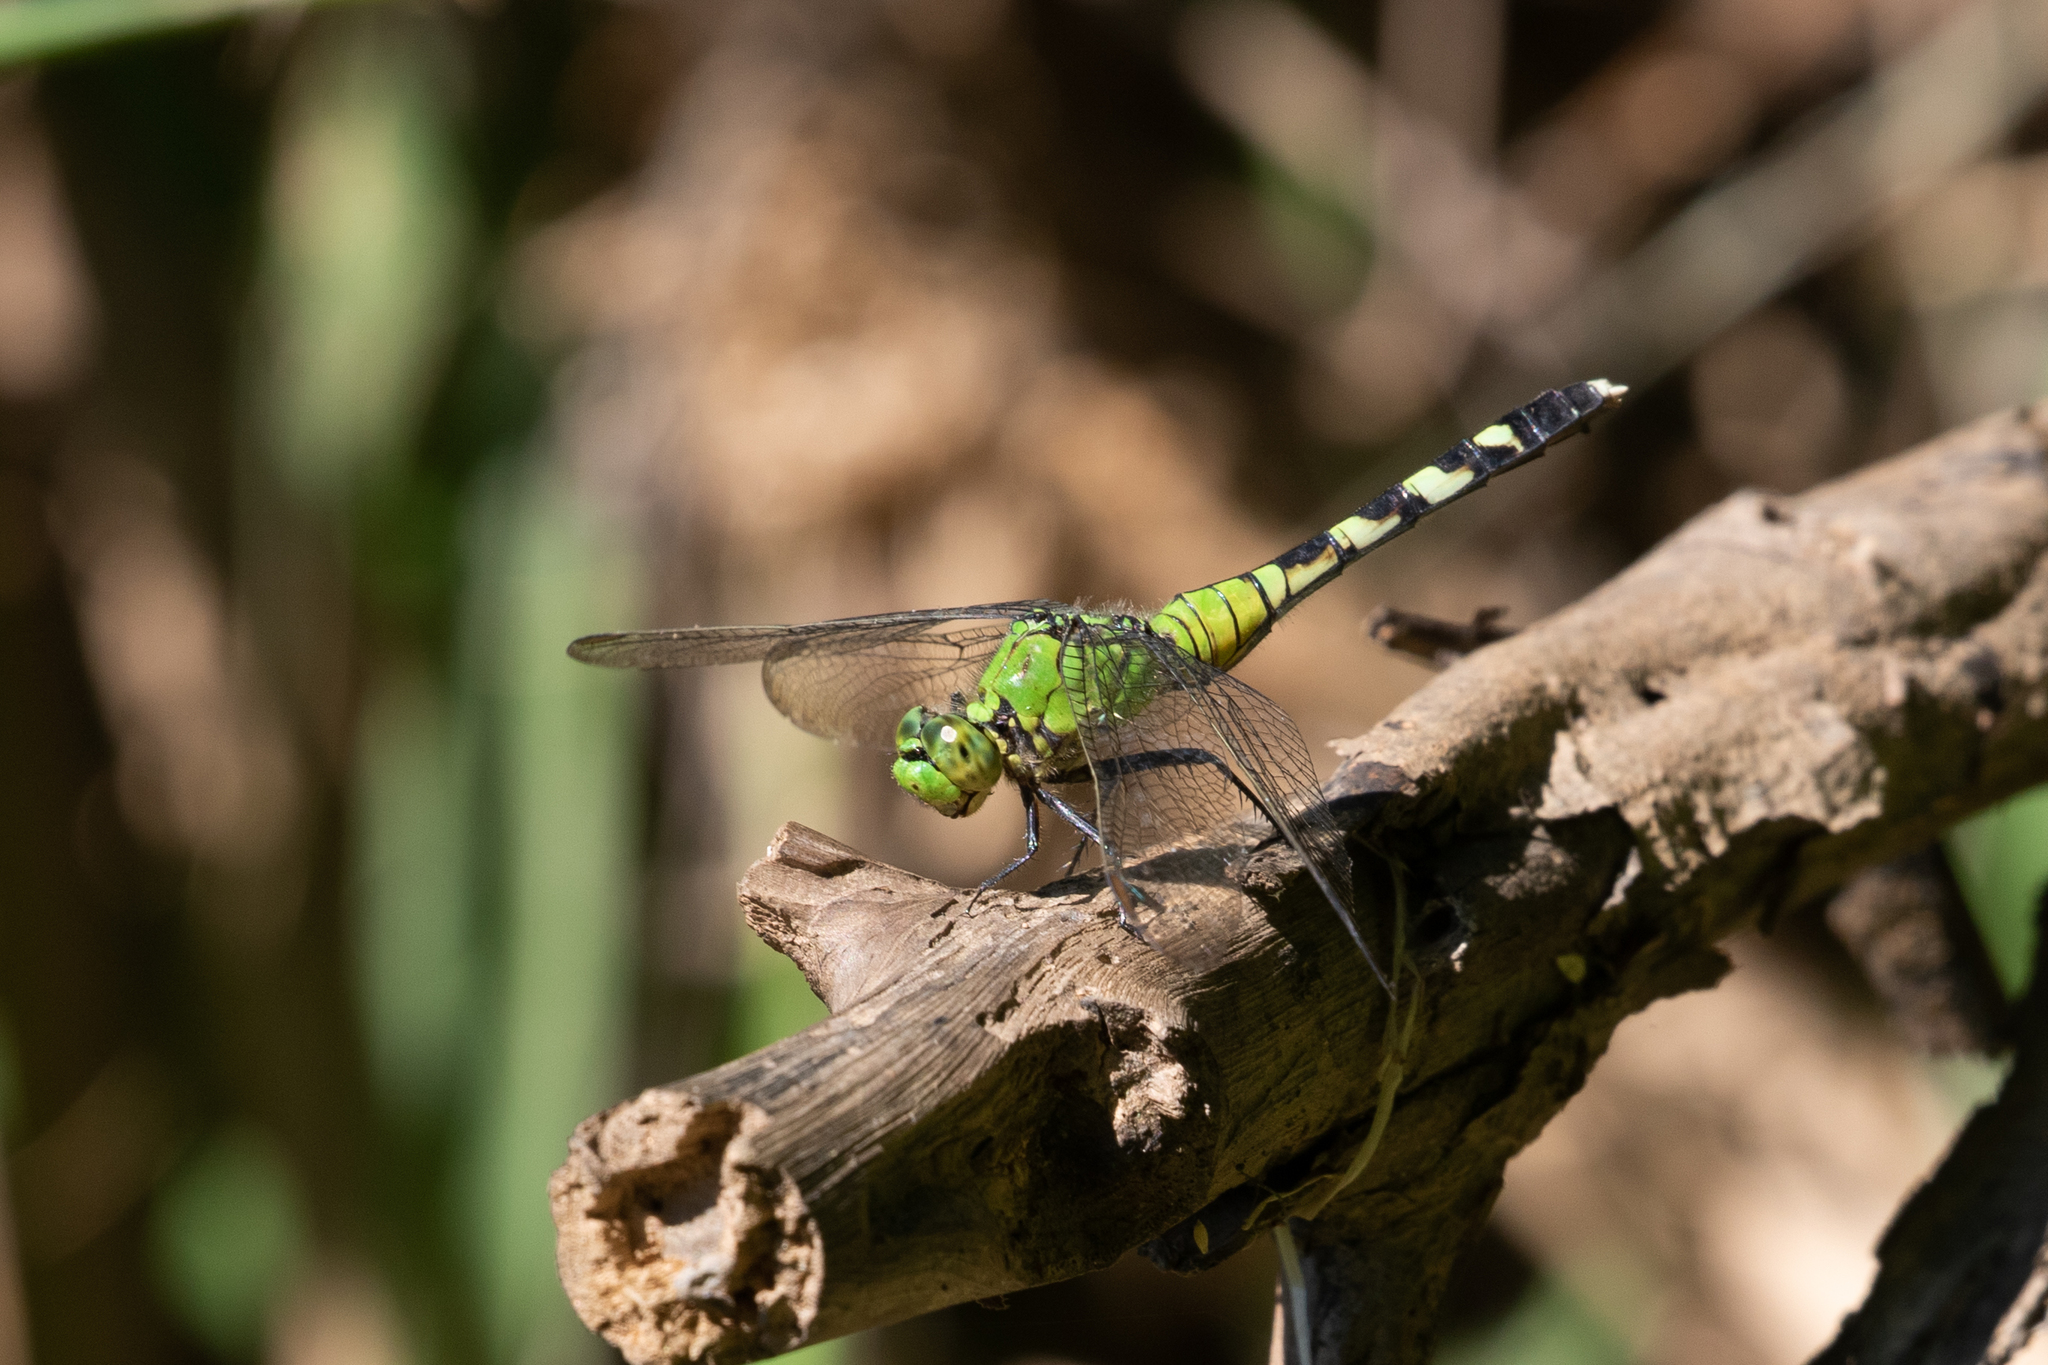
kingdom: Animalia
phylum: Arthropoda
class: Insecta
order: Odonata
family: Libellulidae
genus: Erythemis
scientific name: Erythemis simplicicollis
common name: Eastern pondhawk
